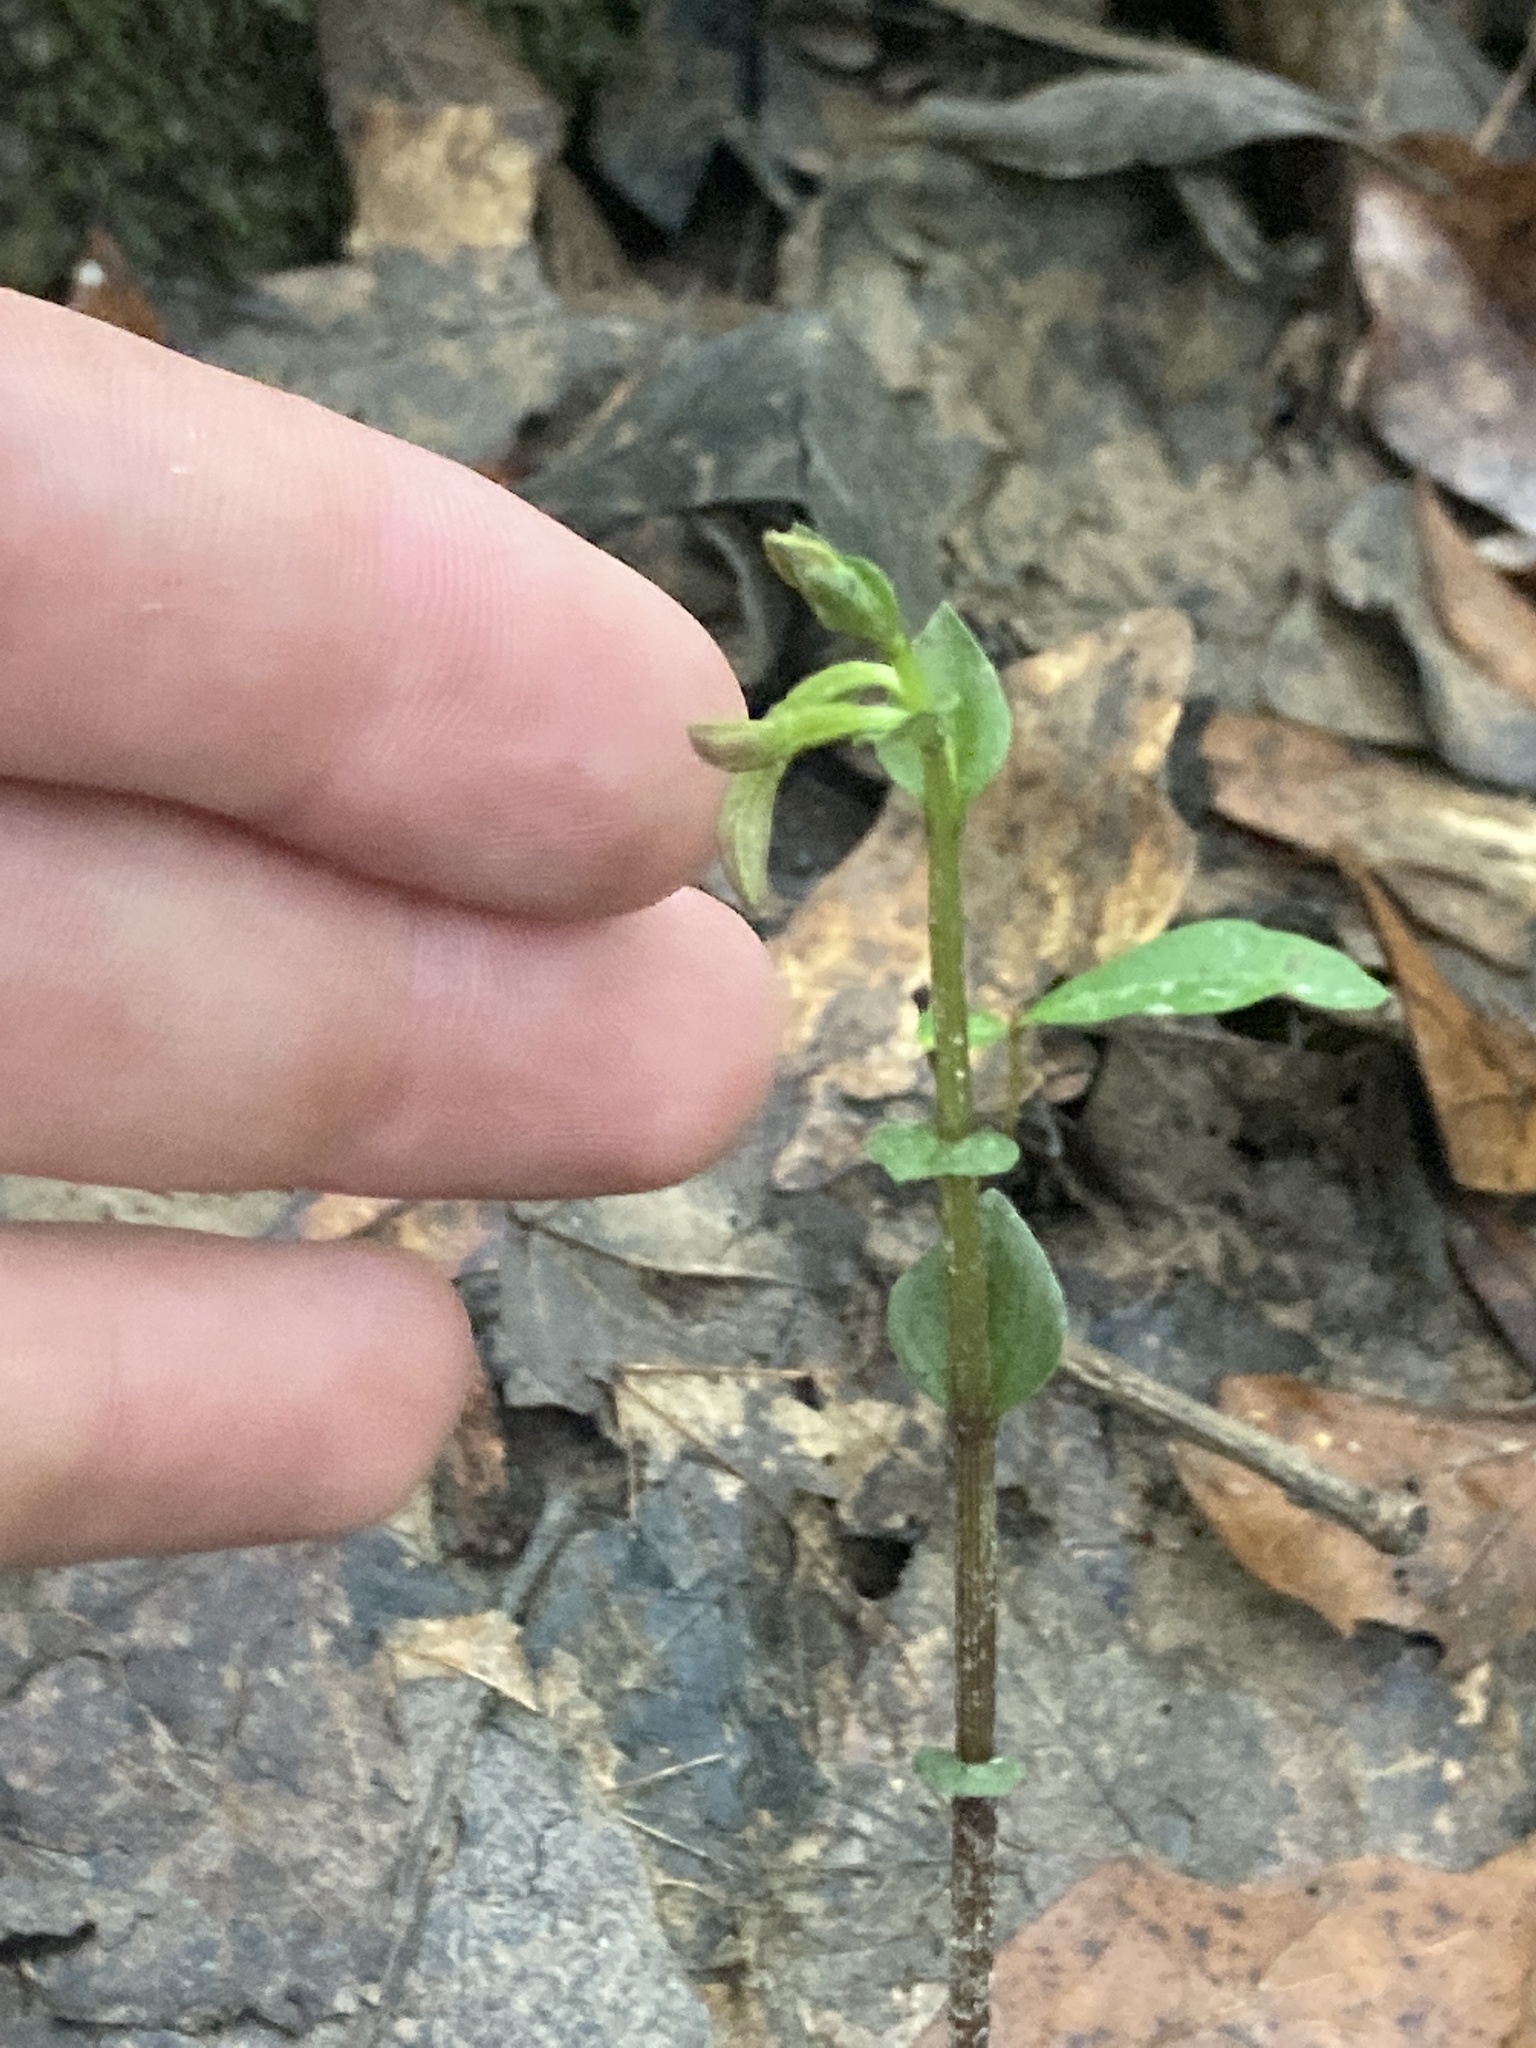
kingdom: Plantae
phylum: Tracheophyta
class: Liliopsida
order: Asparagales
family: Orchidaceae
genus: Triphora
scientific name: Triphora trianthophoros
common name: Three birds orchid
